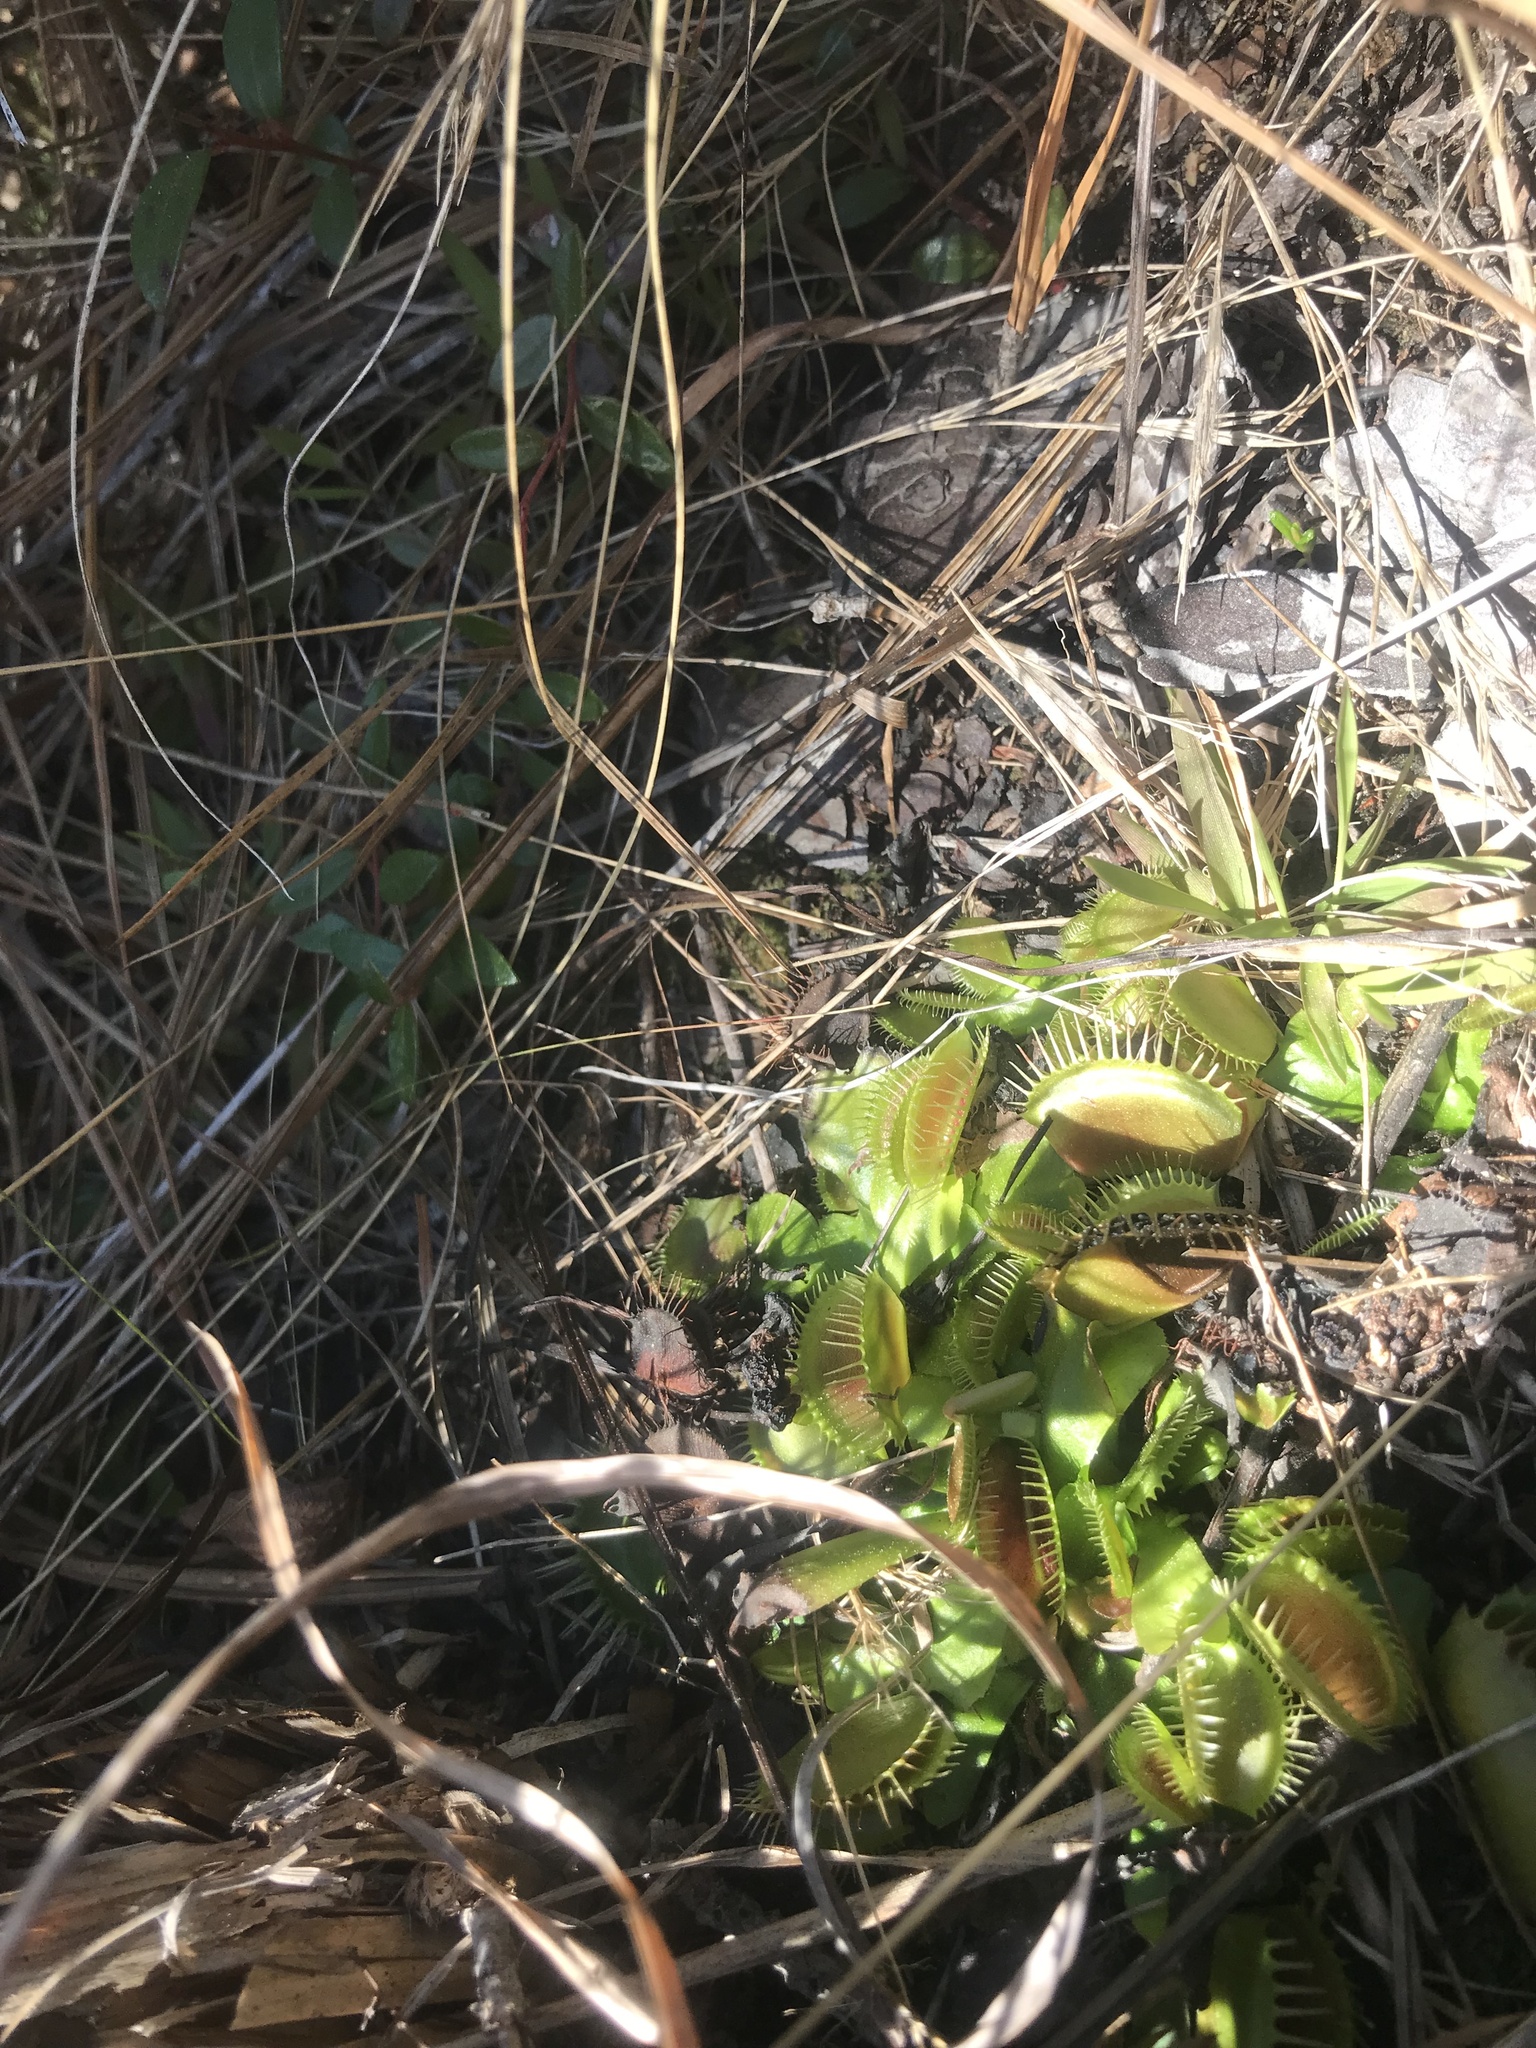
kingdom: Plantae
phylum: Tracheophyta
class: Magnoliopsida
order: Caryophyllales
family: Droseraceae
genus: Dionaea
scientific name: Dionaea muscipula
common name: Venus flytrap
